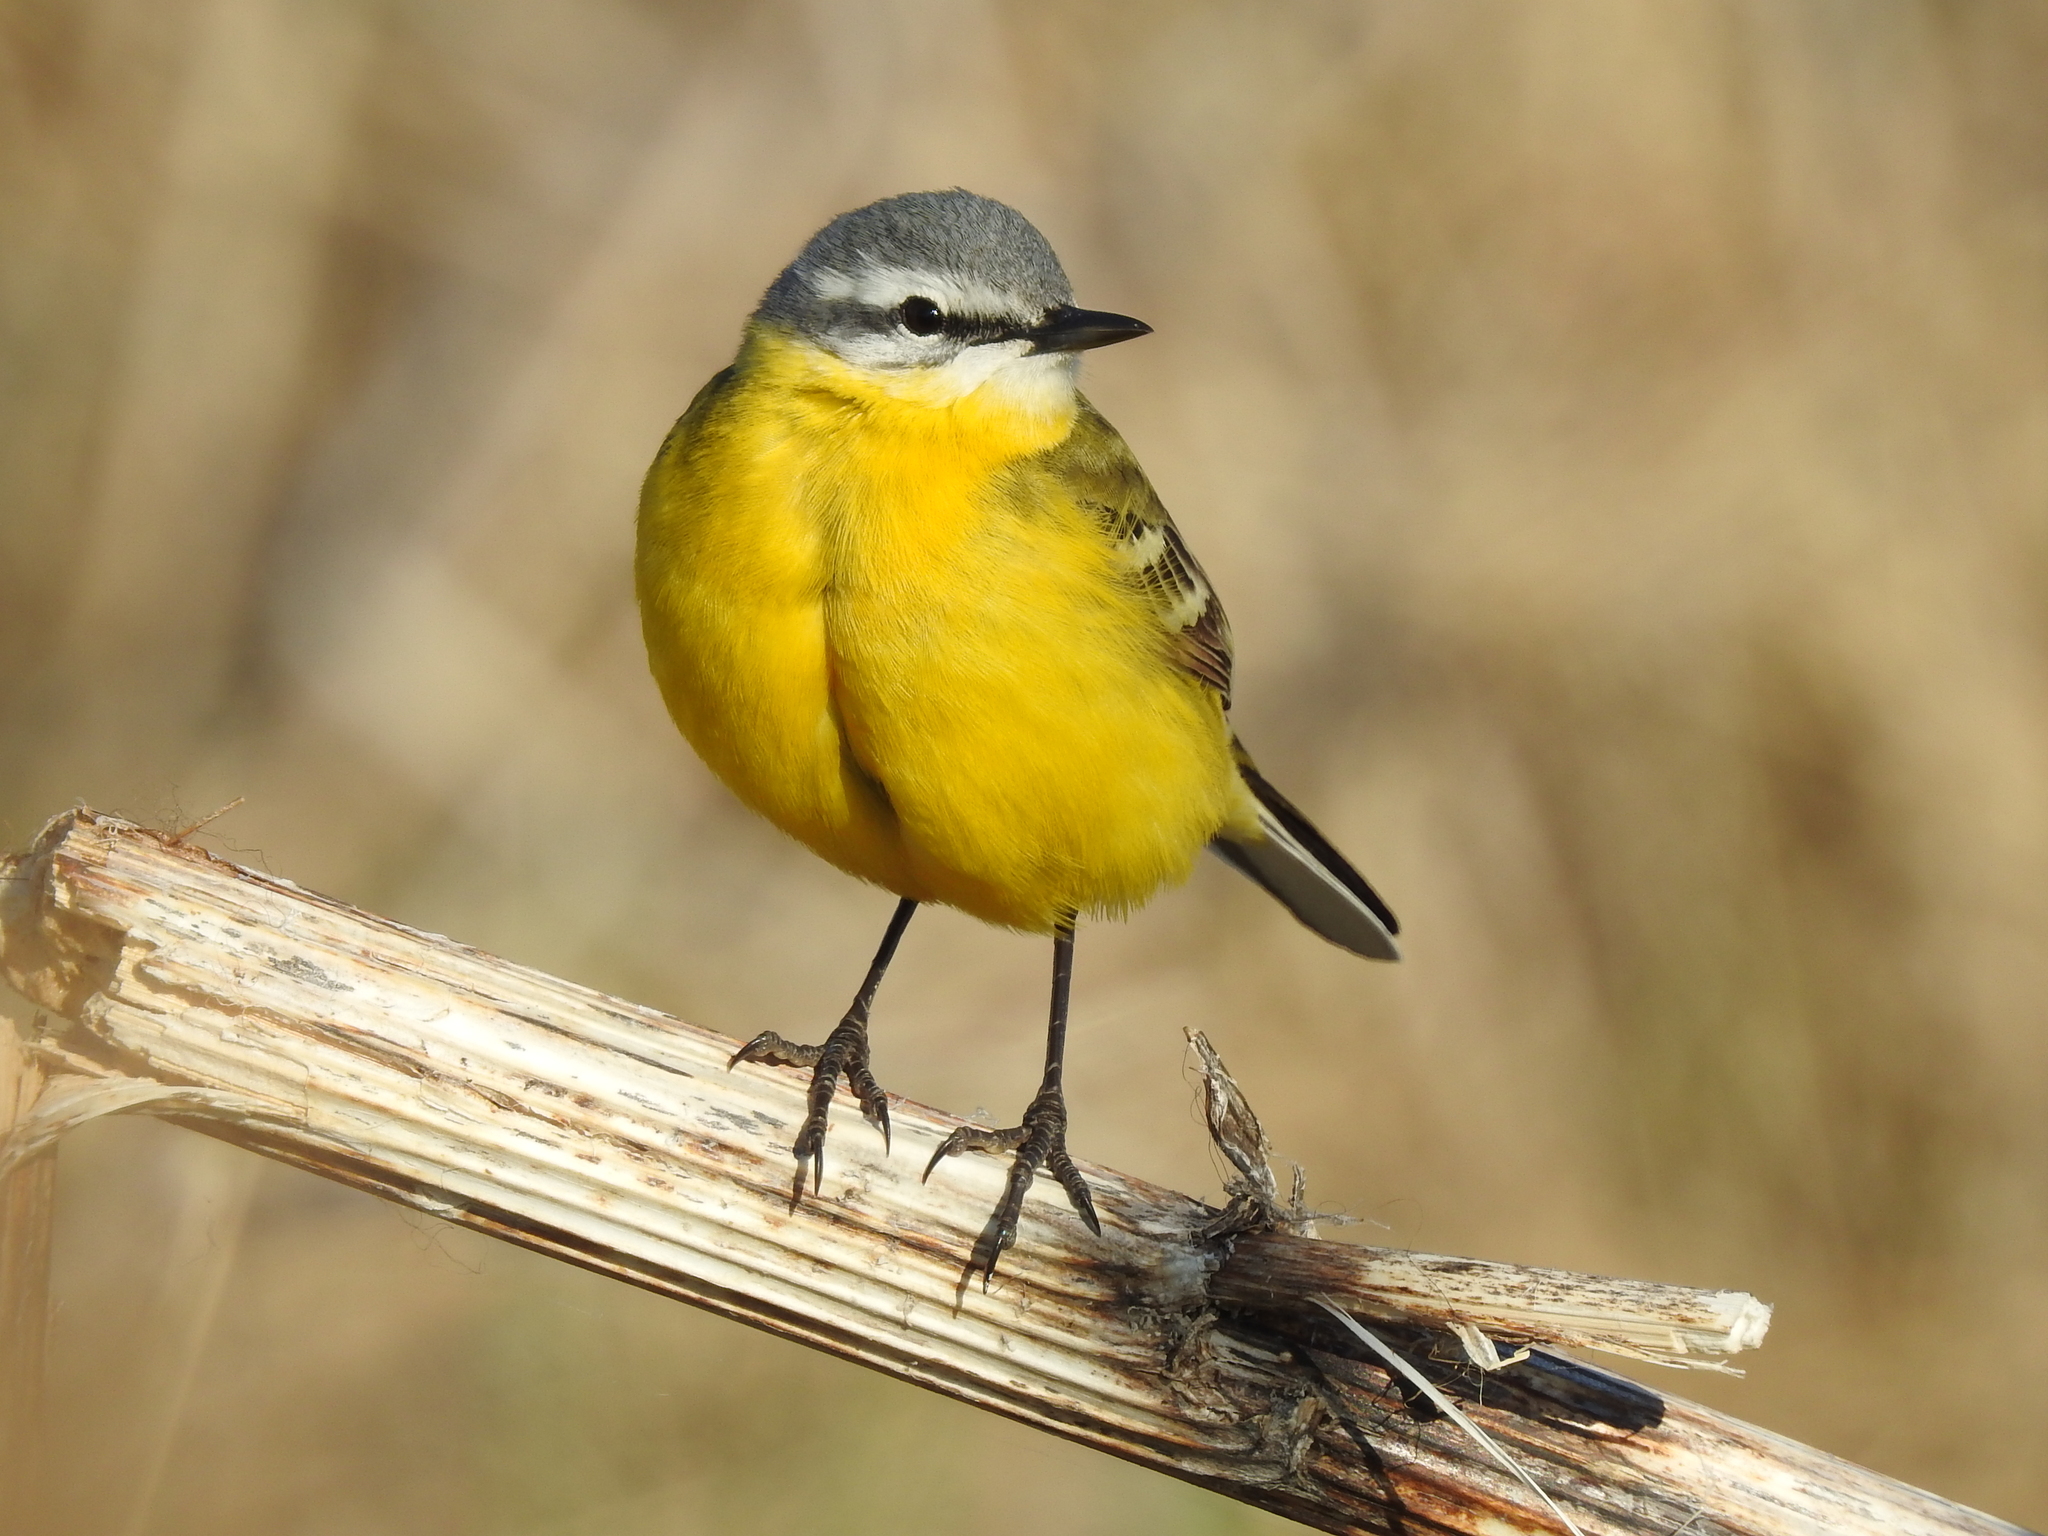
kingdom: Animalia
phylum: Chordata
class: Aves
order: Passeriformes
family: Motacillidae
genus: Motacilla
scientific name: Motacilla flava
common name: Western yellow wagtail
